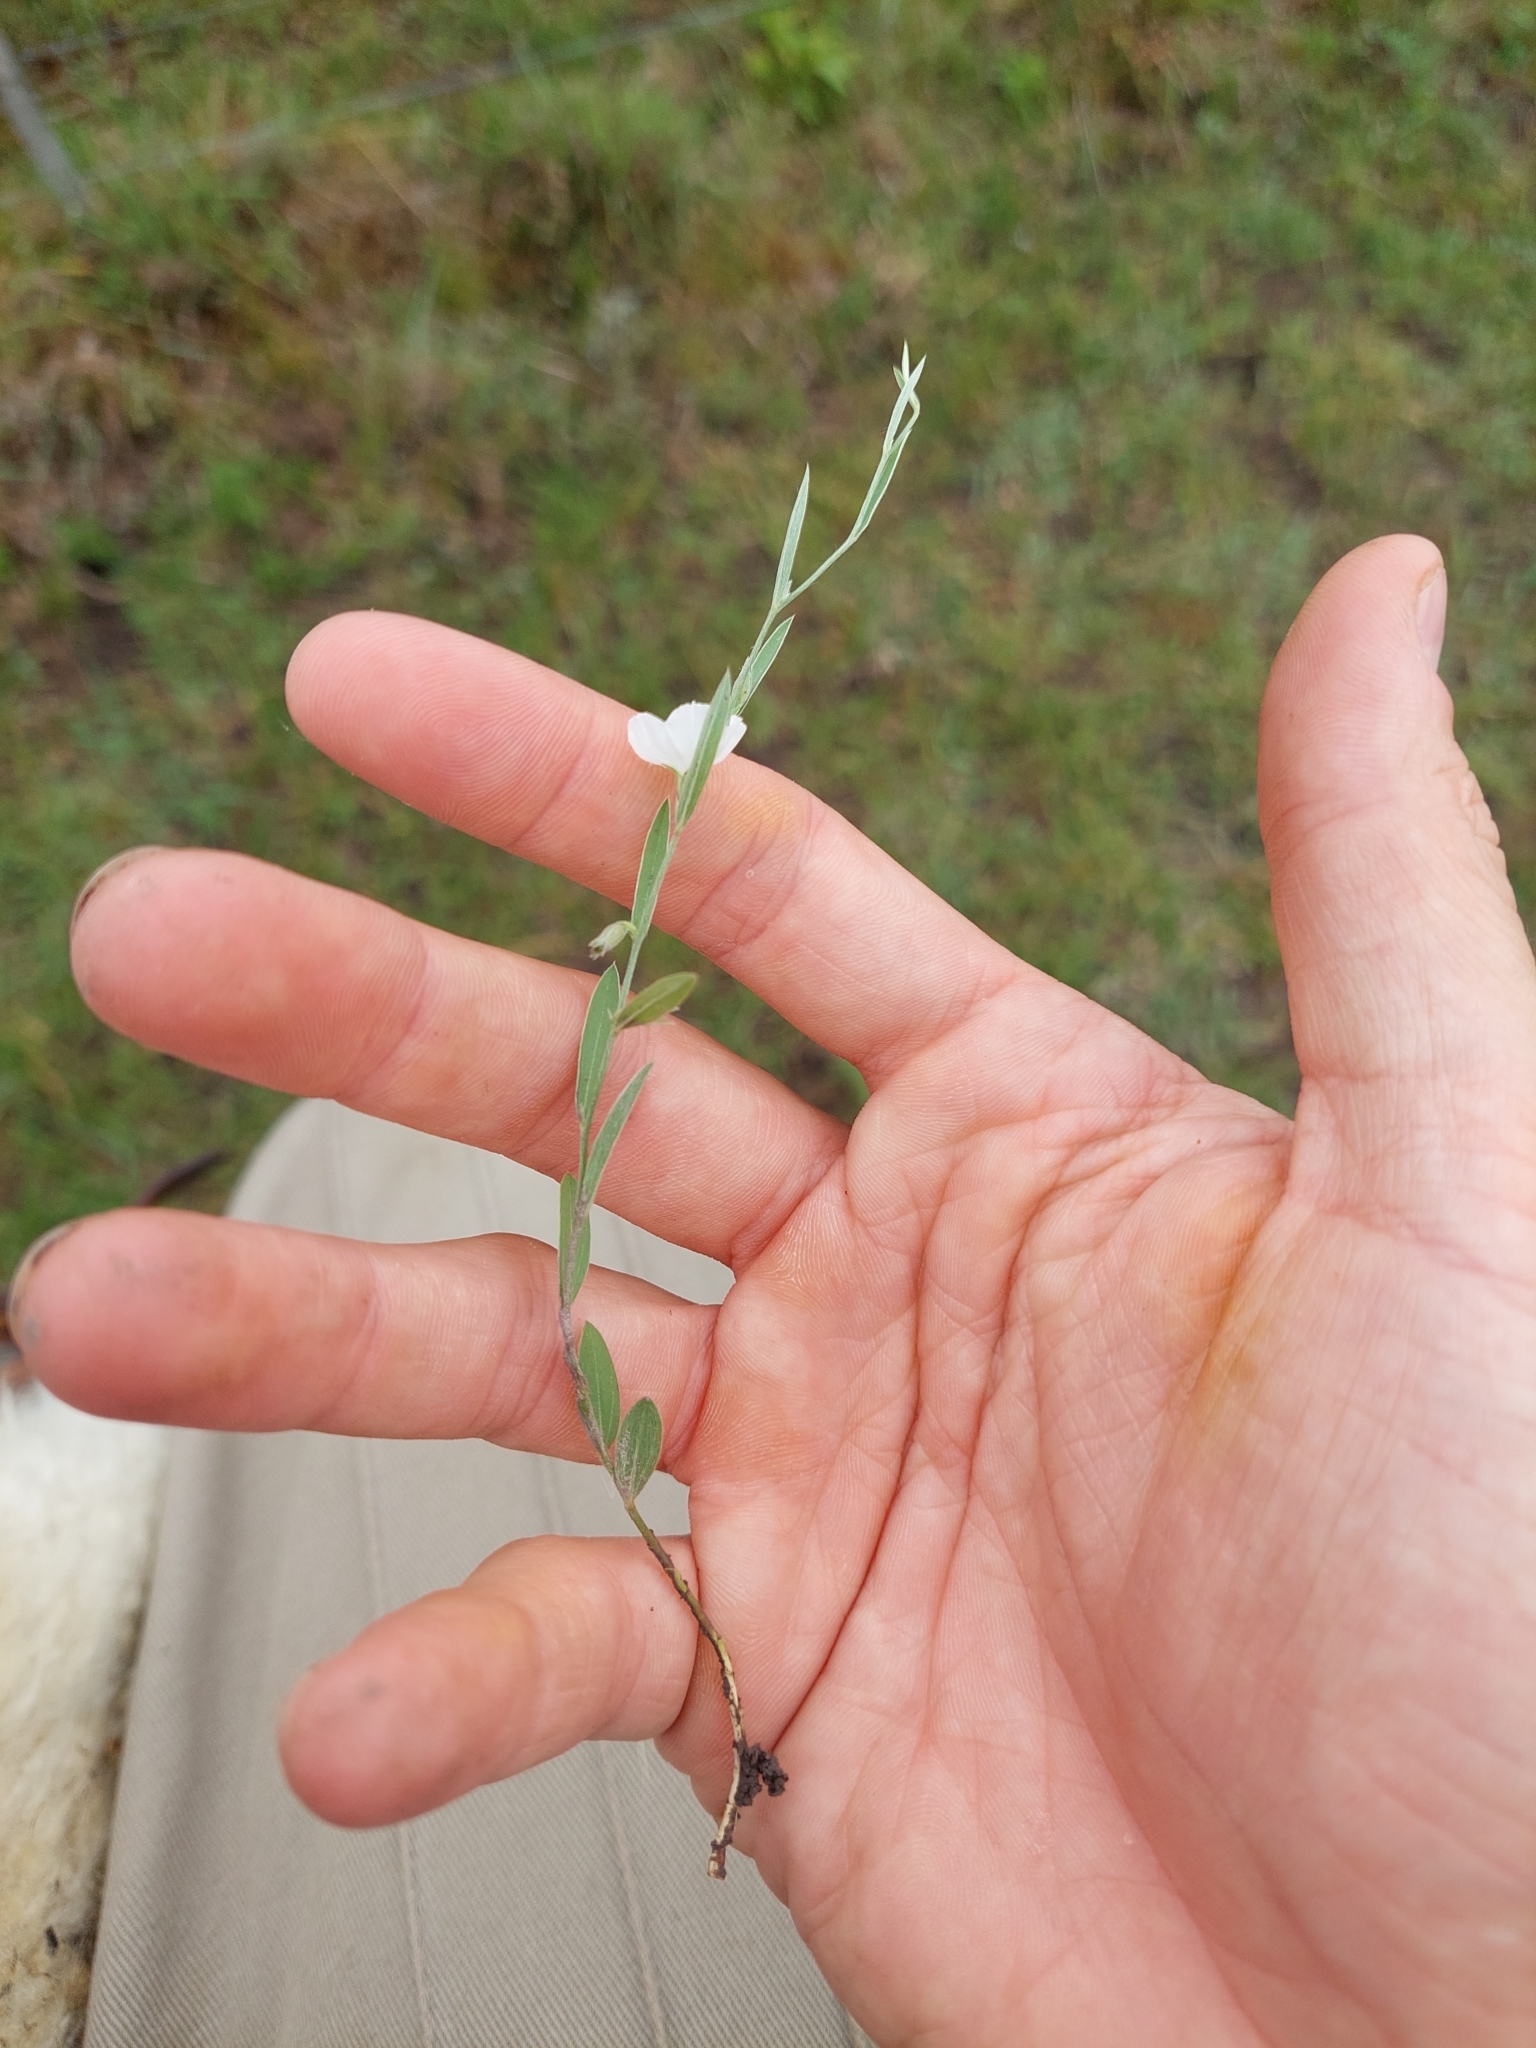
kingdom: Plantae
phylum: Tracheophyta
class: Magnoliopsida
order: Solanales
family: Convolvulaceae
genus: Evolvulus
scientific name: Evolvulus sericeus
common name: Blue dots
